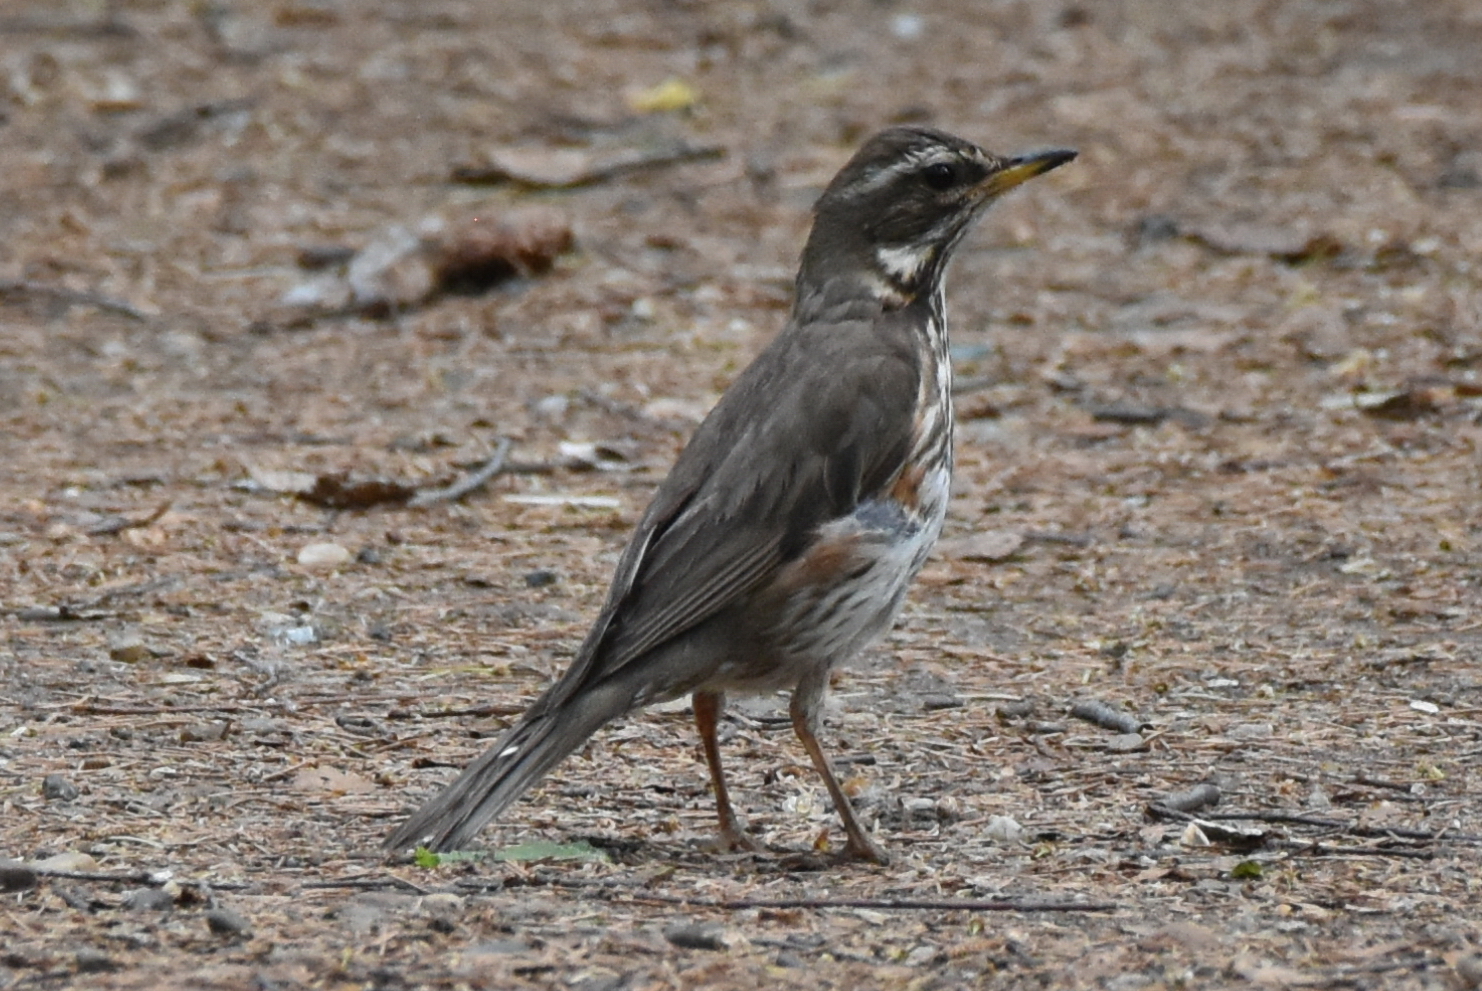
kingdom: Animalia
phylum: Chordata
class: Aves
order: Passeriformes
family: Turdidae
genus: Turdus
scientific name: Turdus iliacus
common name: Redwing
